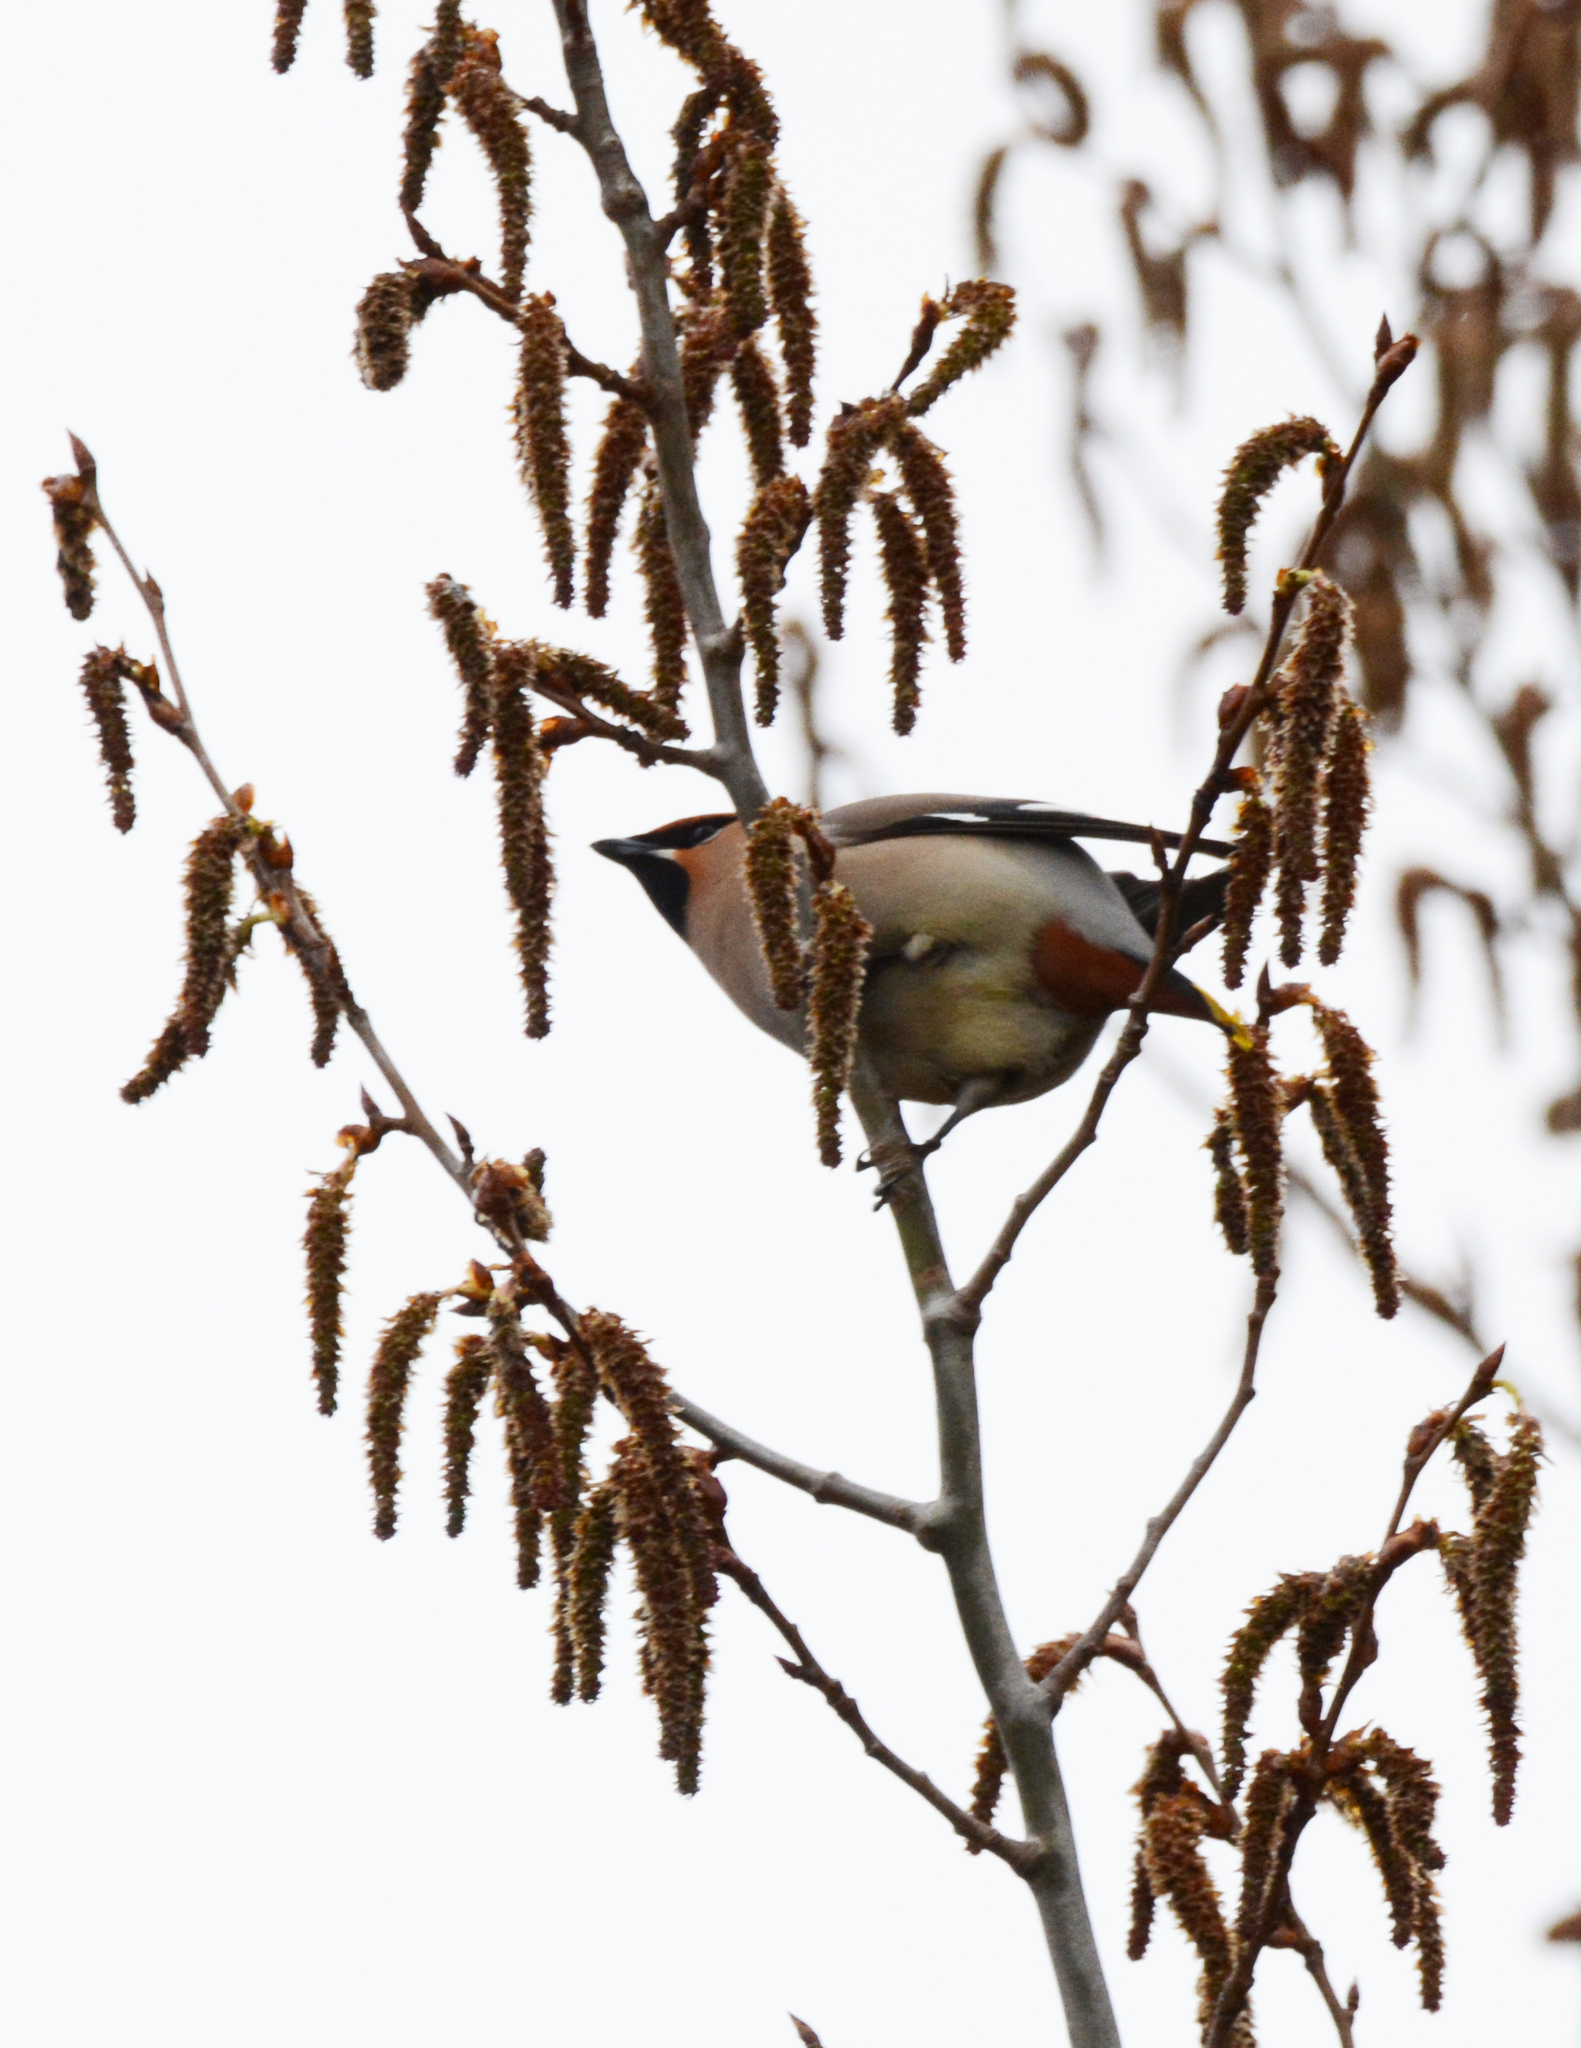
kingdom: Animalia
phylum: Chordata
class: Aves
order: Passeriformes
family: Bombycillidae
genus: Bombycilla
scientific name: Bombycilla garrulus
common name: Bohemian waxwing
